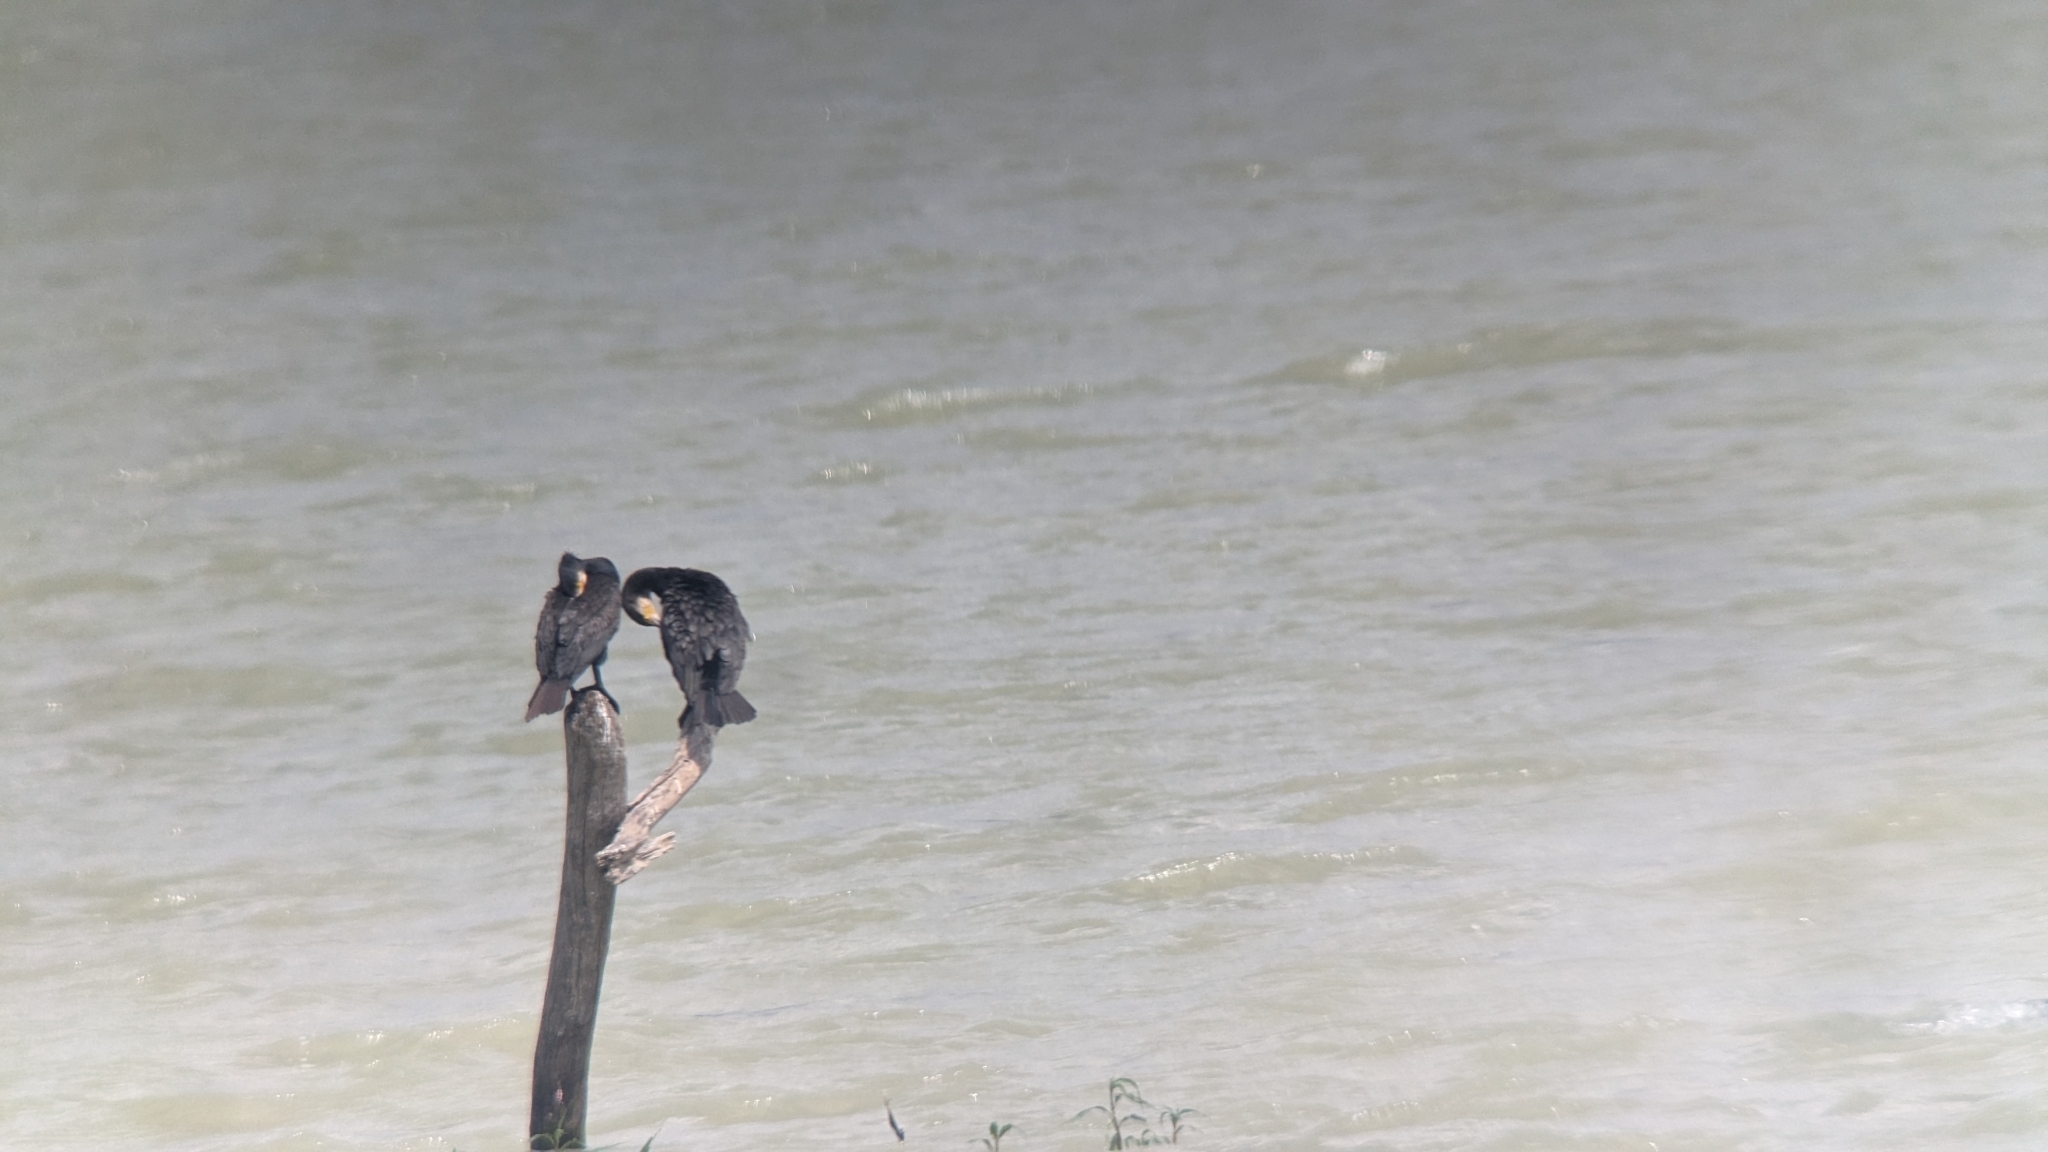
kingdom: Animalia
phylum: Chordata
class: Aves
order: Suliformes
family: Phalacrocoracidae
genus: Phalacrocorax
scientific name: Phalacrocorax carbo
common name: Great cormorant
